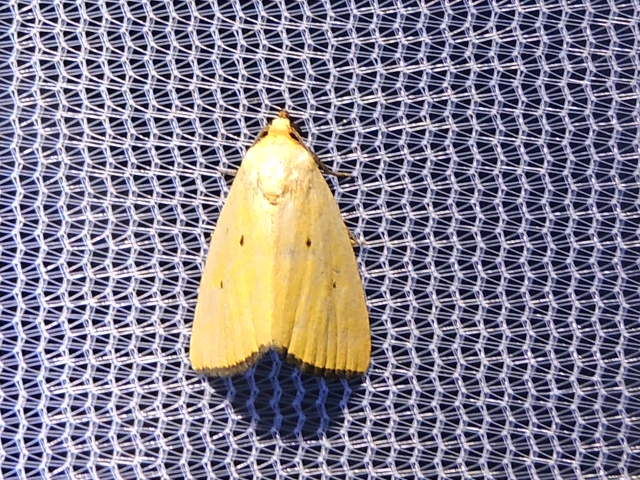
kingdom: Animalia
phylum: Arthropoda
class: Insecta
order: Lepidoptera
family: Noctuidae
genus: Marimatha
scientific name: Marimatha nigrofimbria
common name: Black-bordered lemon moth
